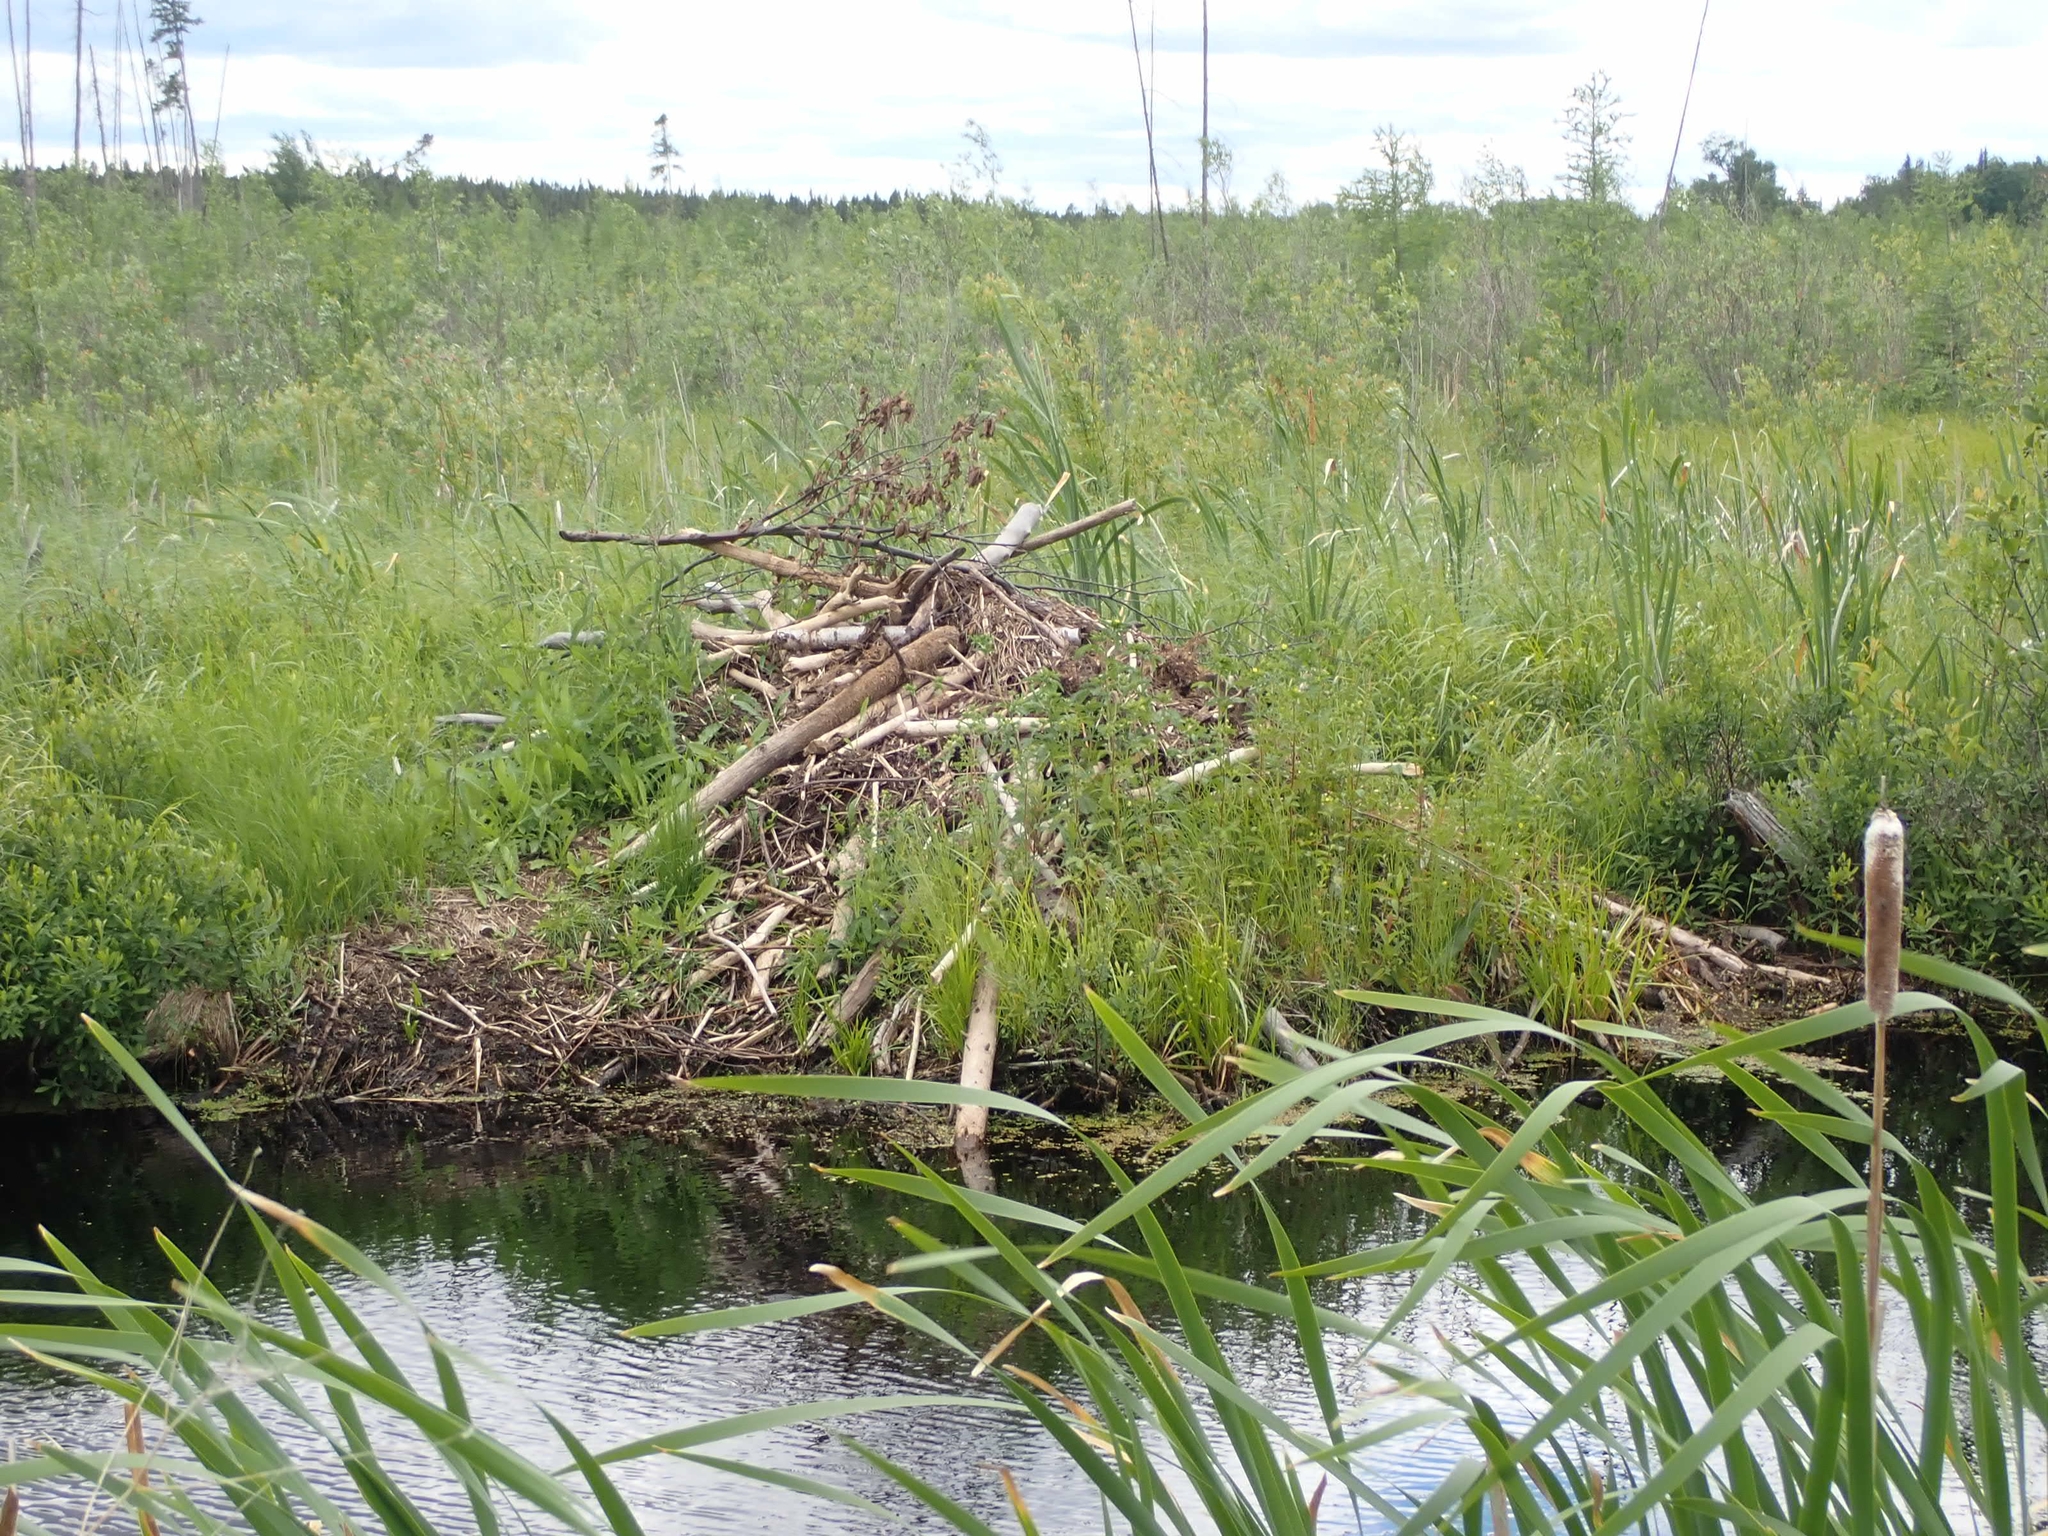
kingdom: Animalia
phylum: Chordata
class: Mammalia
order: Rodentia
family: Castoridae
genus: Castor
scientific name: Castor canadensis
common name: American beaver
